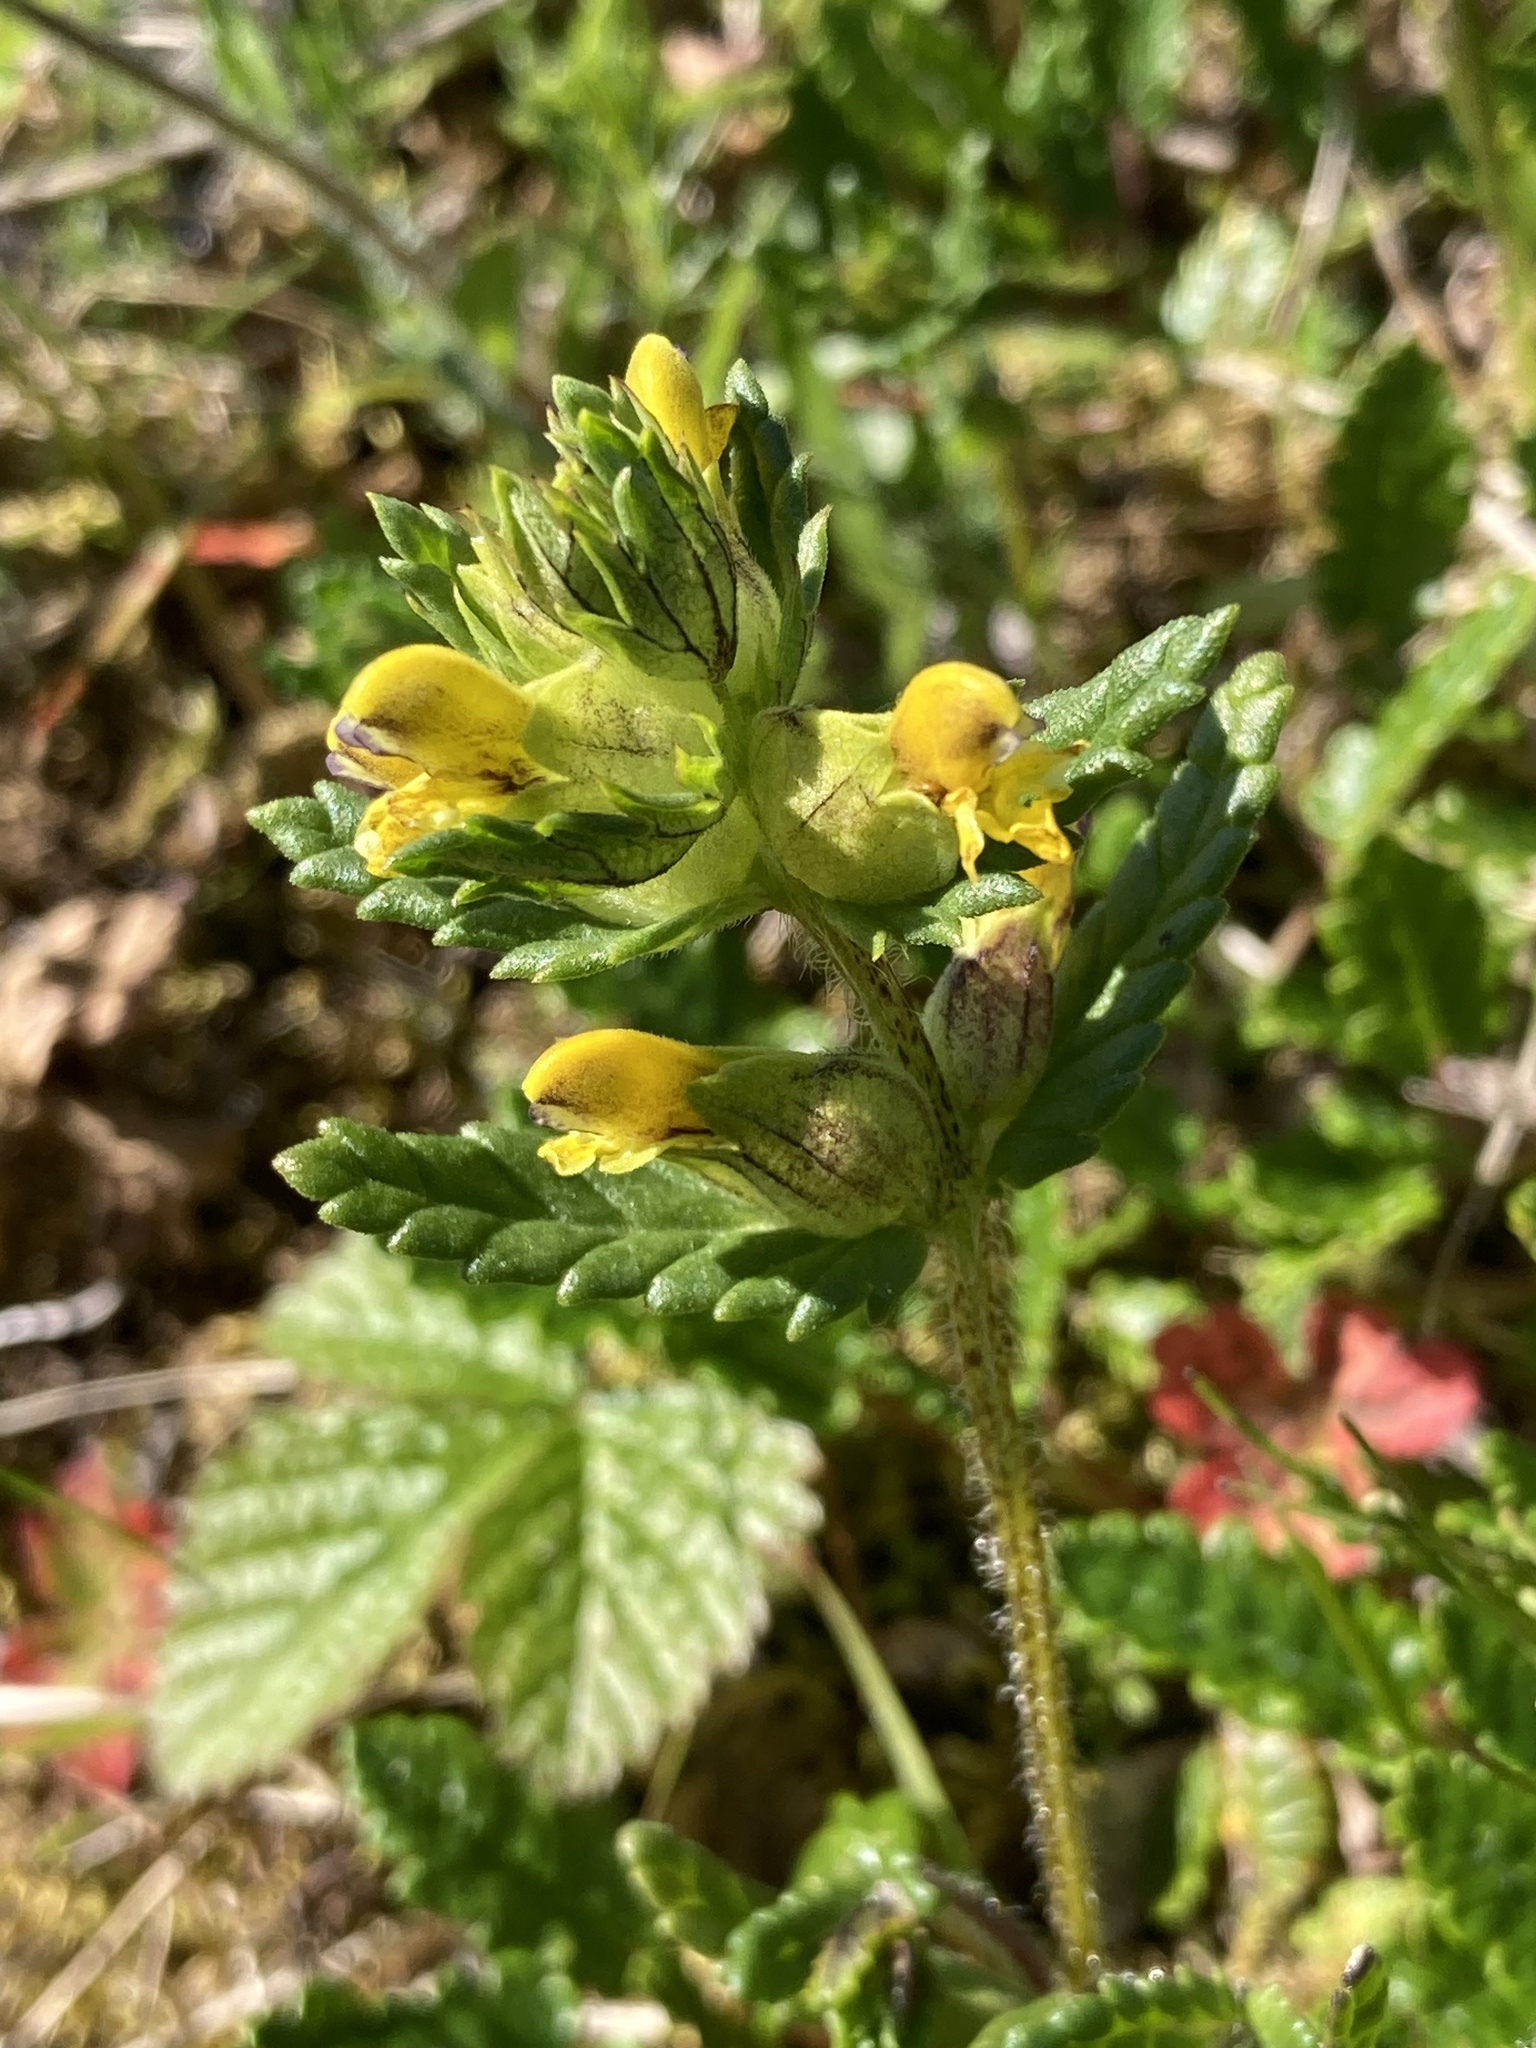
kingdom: Plantae
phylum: Tracheophyta
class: Magnoliopsida
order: Lamiales
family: Orobanchaceae
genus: Rhinanthus
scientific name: Rhinanthus minor
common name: Yellow-rattle
